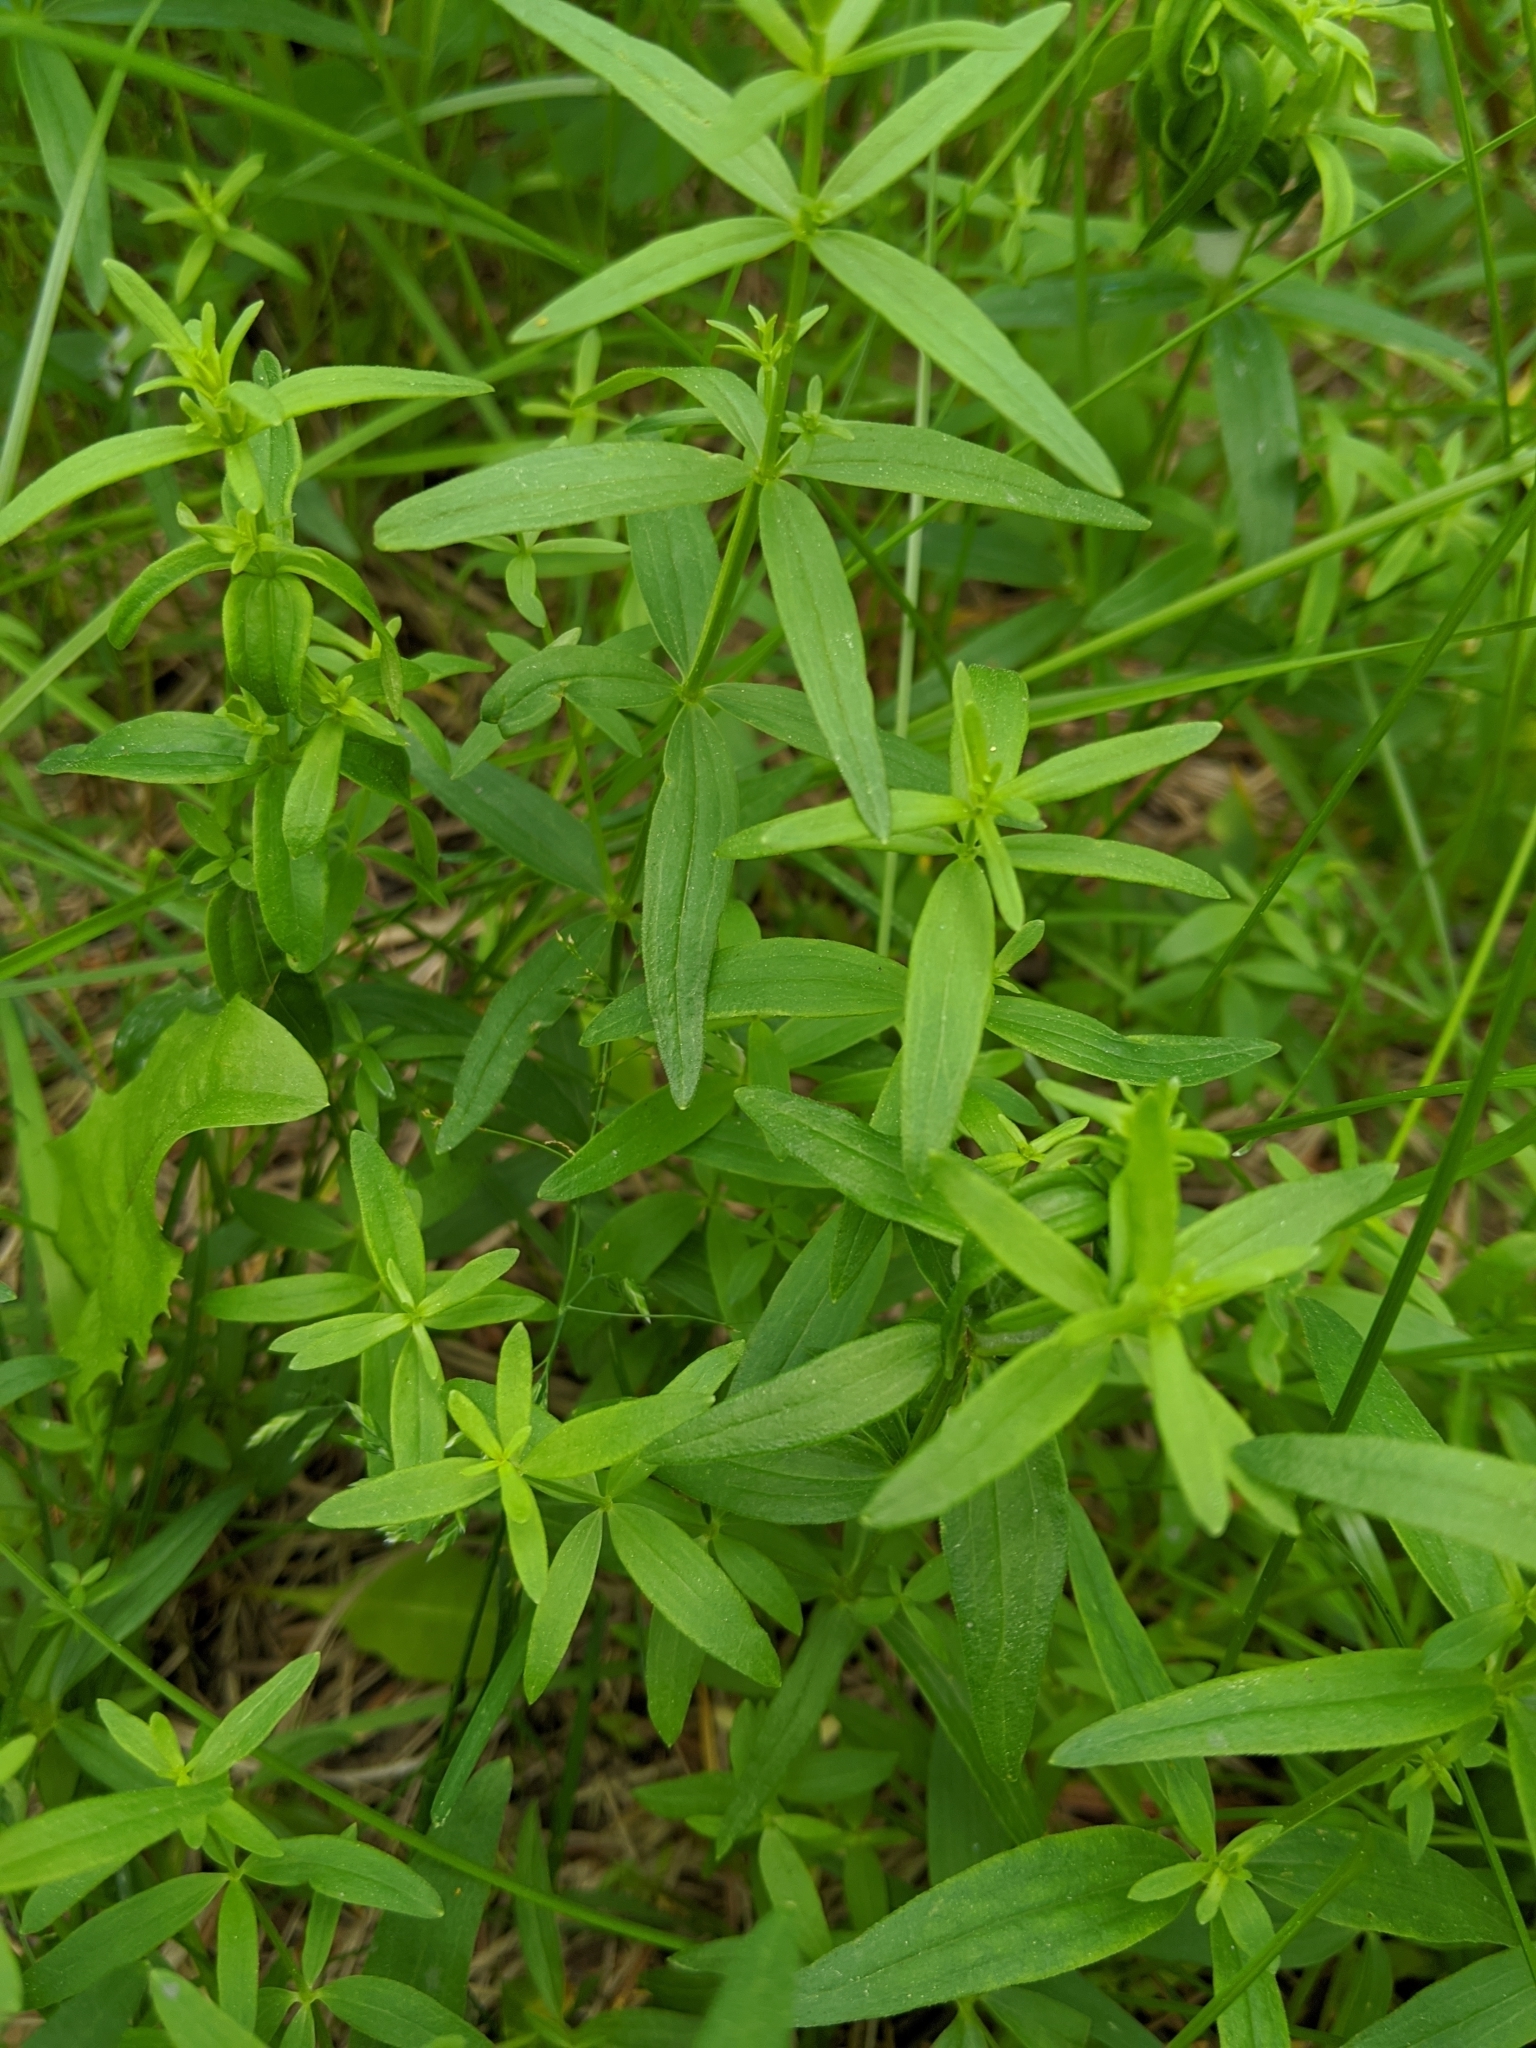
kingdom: Plantae
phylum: Tracheophyta
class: Magnoliopsida
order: Gentianales
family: Rubiaceae
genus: Galium
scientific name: Galium boreale
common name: Northern bedstraw
